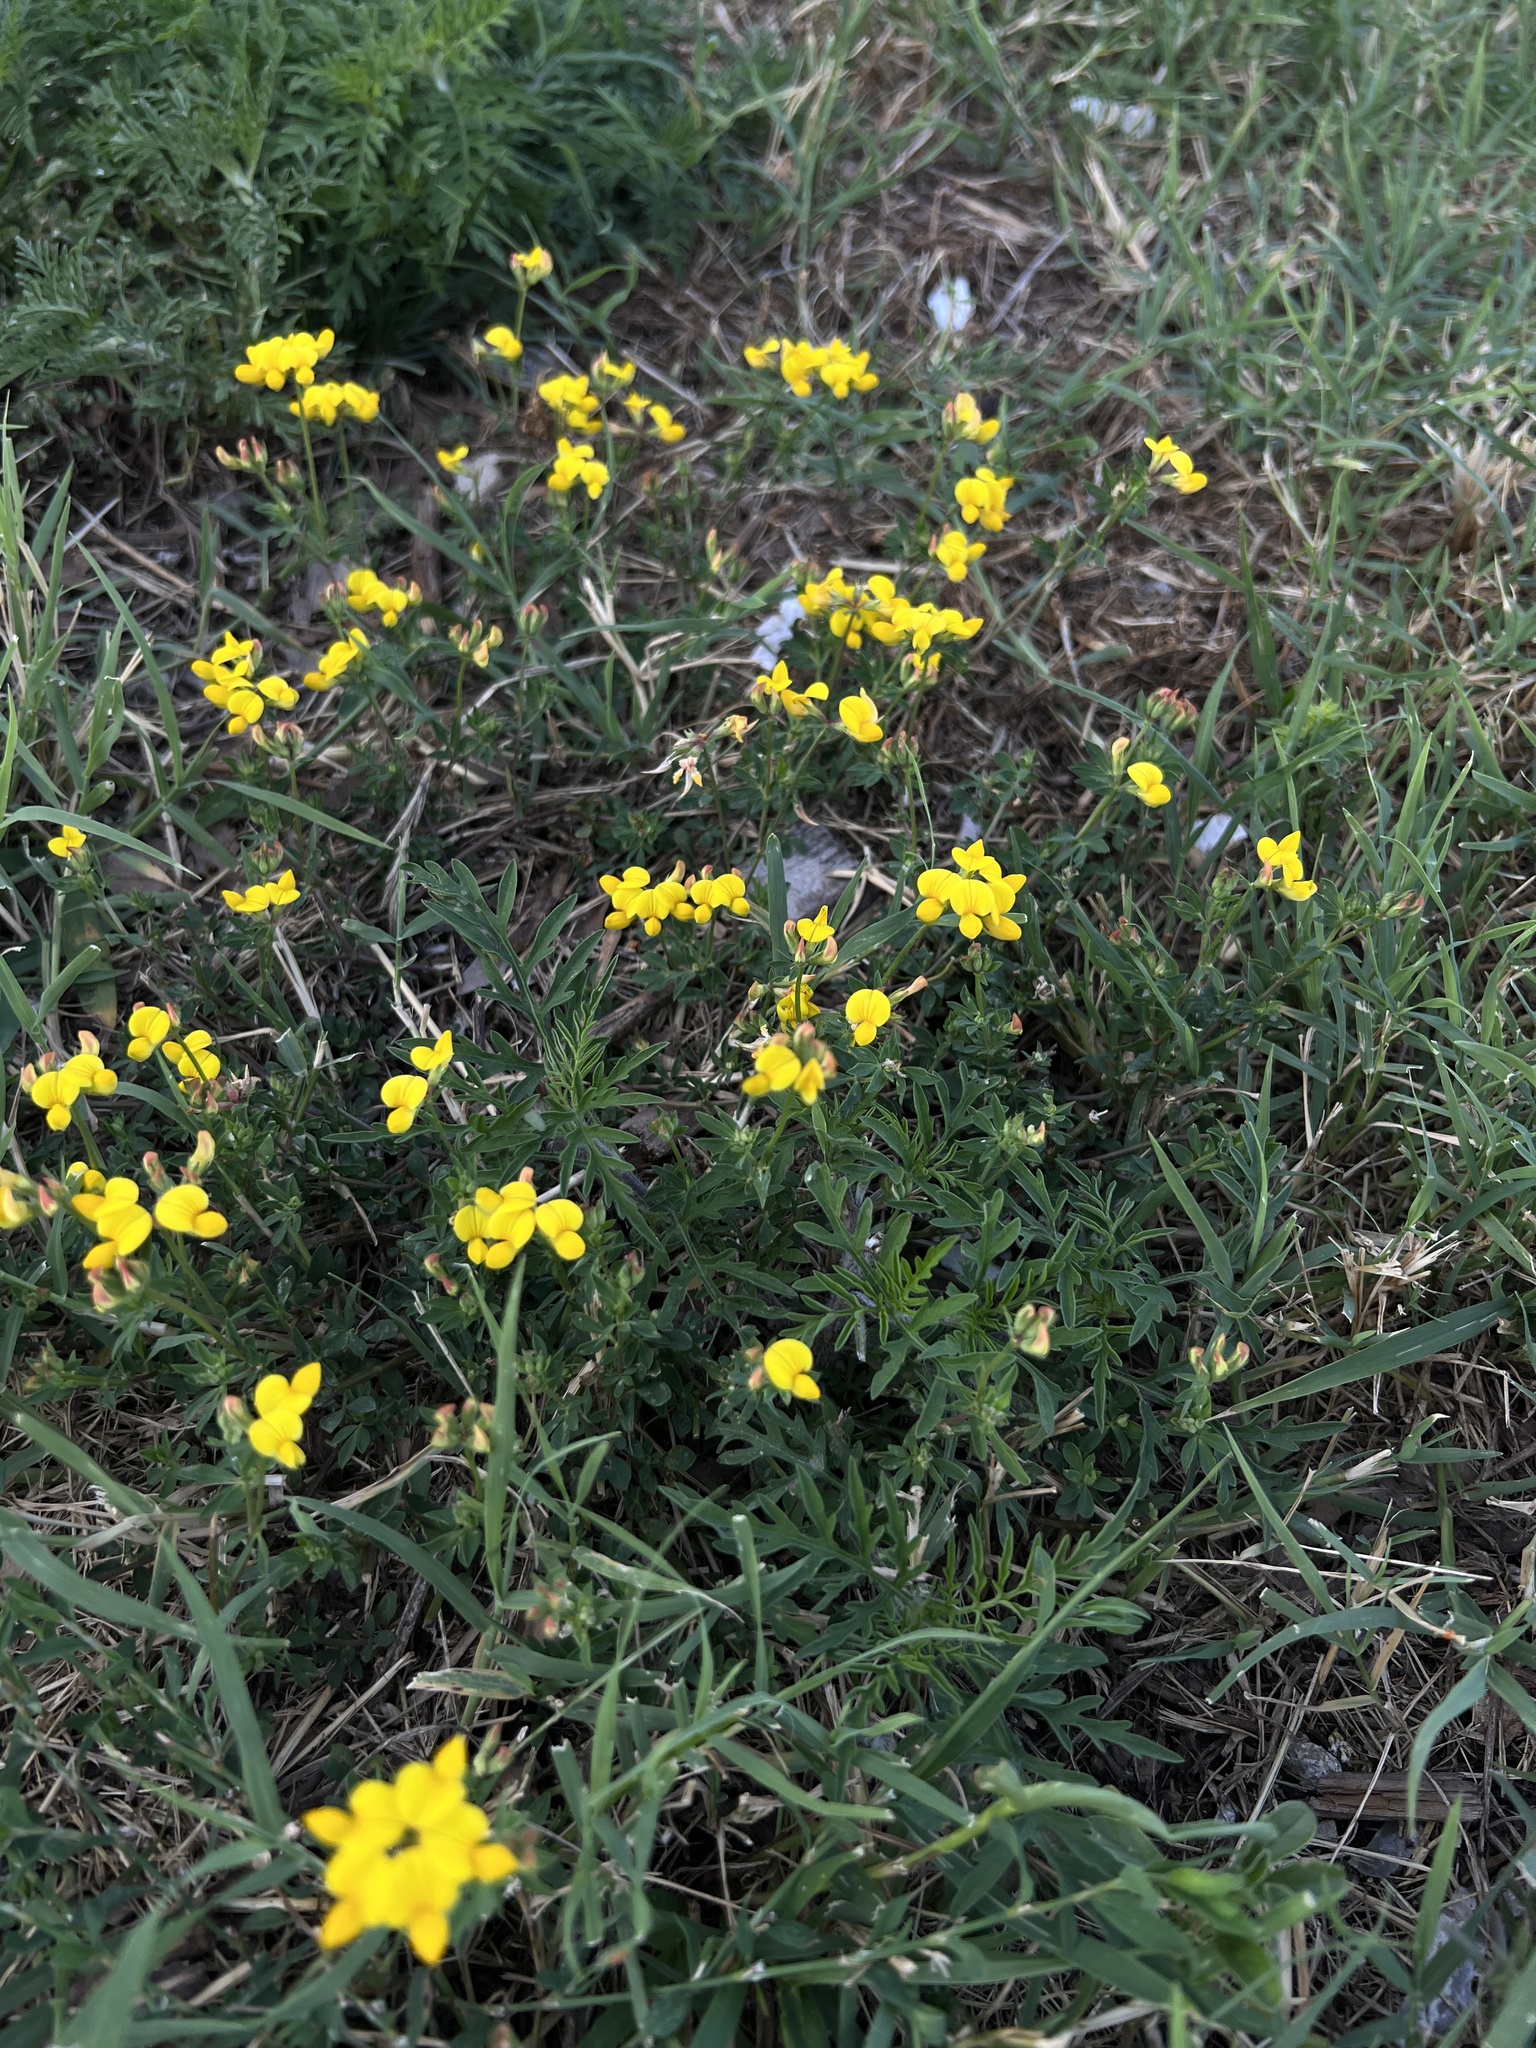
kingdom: Plantae
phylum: Tracheophyta
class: Magnoliopsida
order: Fabales
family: Fabaceae
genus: Lotus
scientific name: Lotus corniculatus
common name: Common bird's-foot-trefoil
